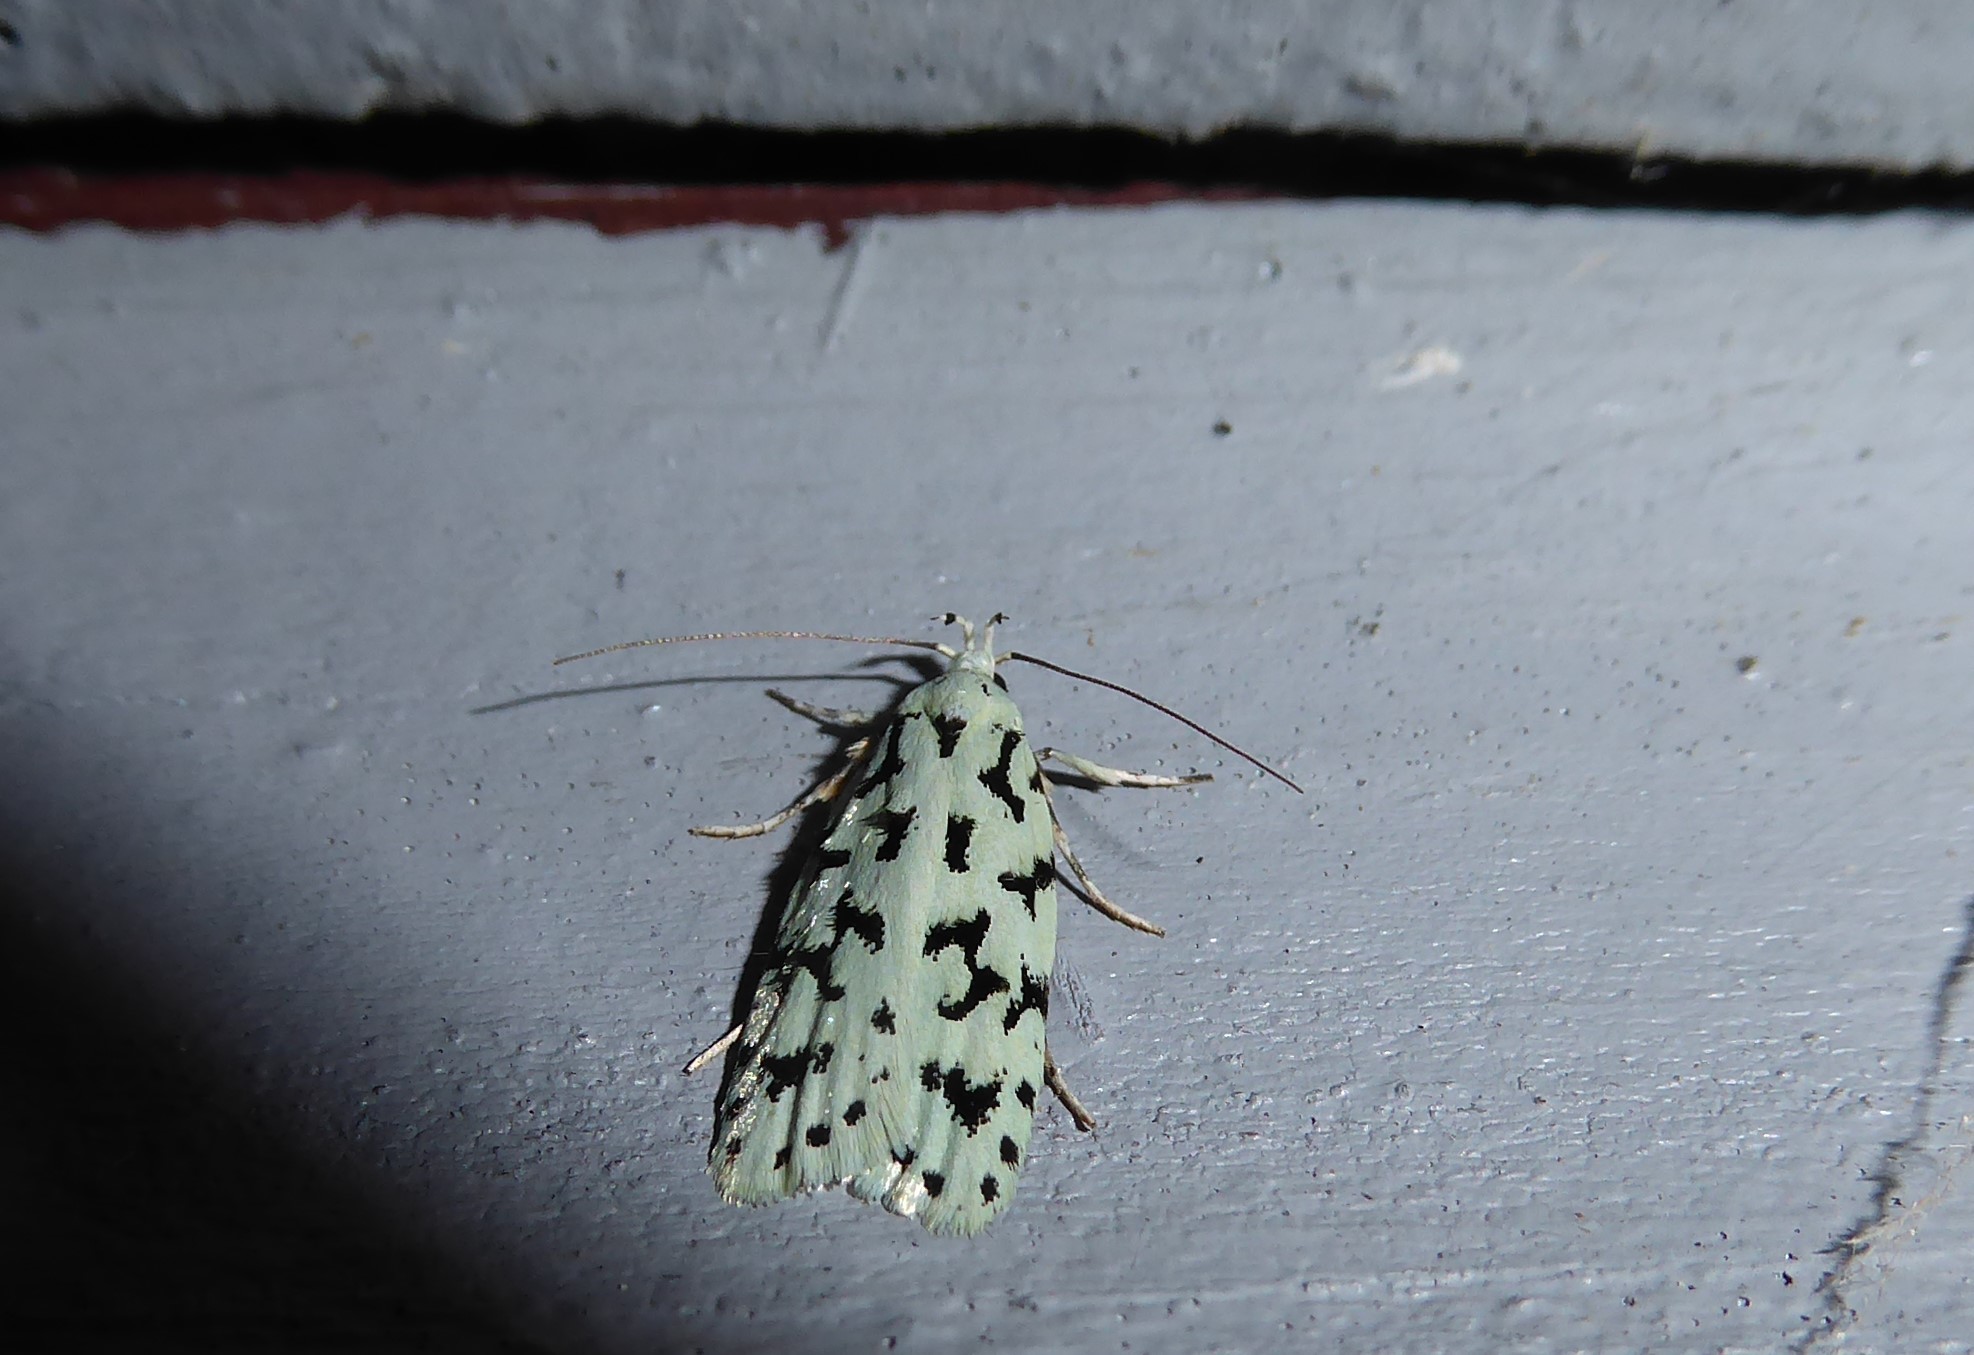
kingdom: Animalia
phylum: Arthropoda
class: Insecta
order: Lepidoptera
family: Oecophoridae
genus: Izatha
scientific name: Izatha huttoni
